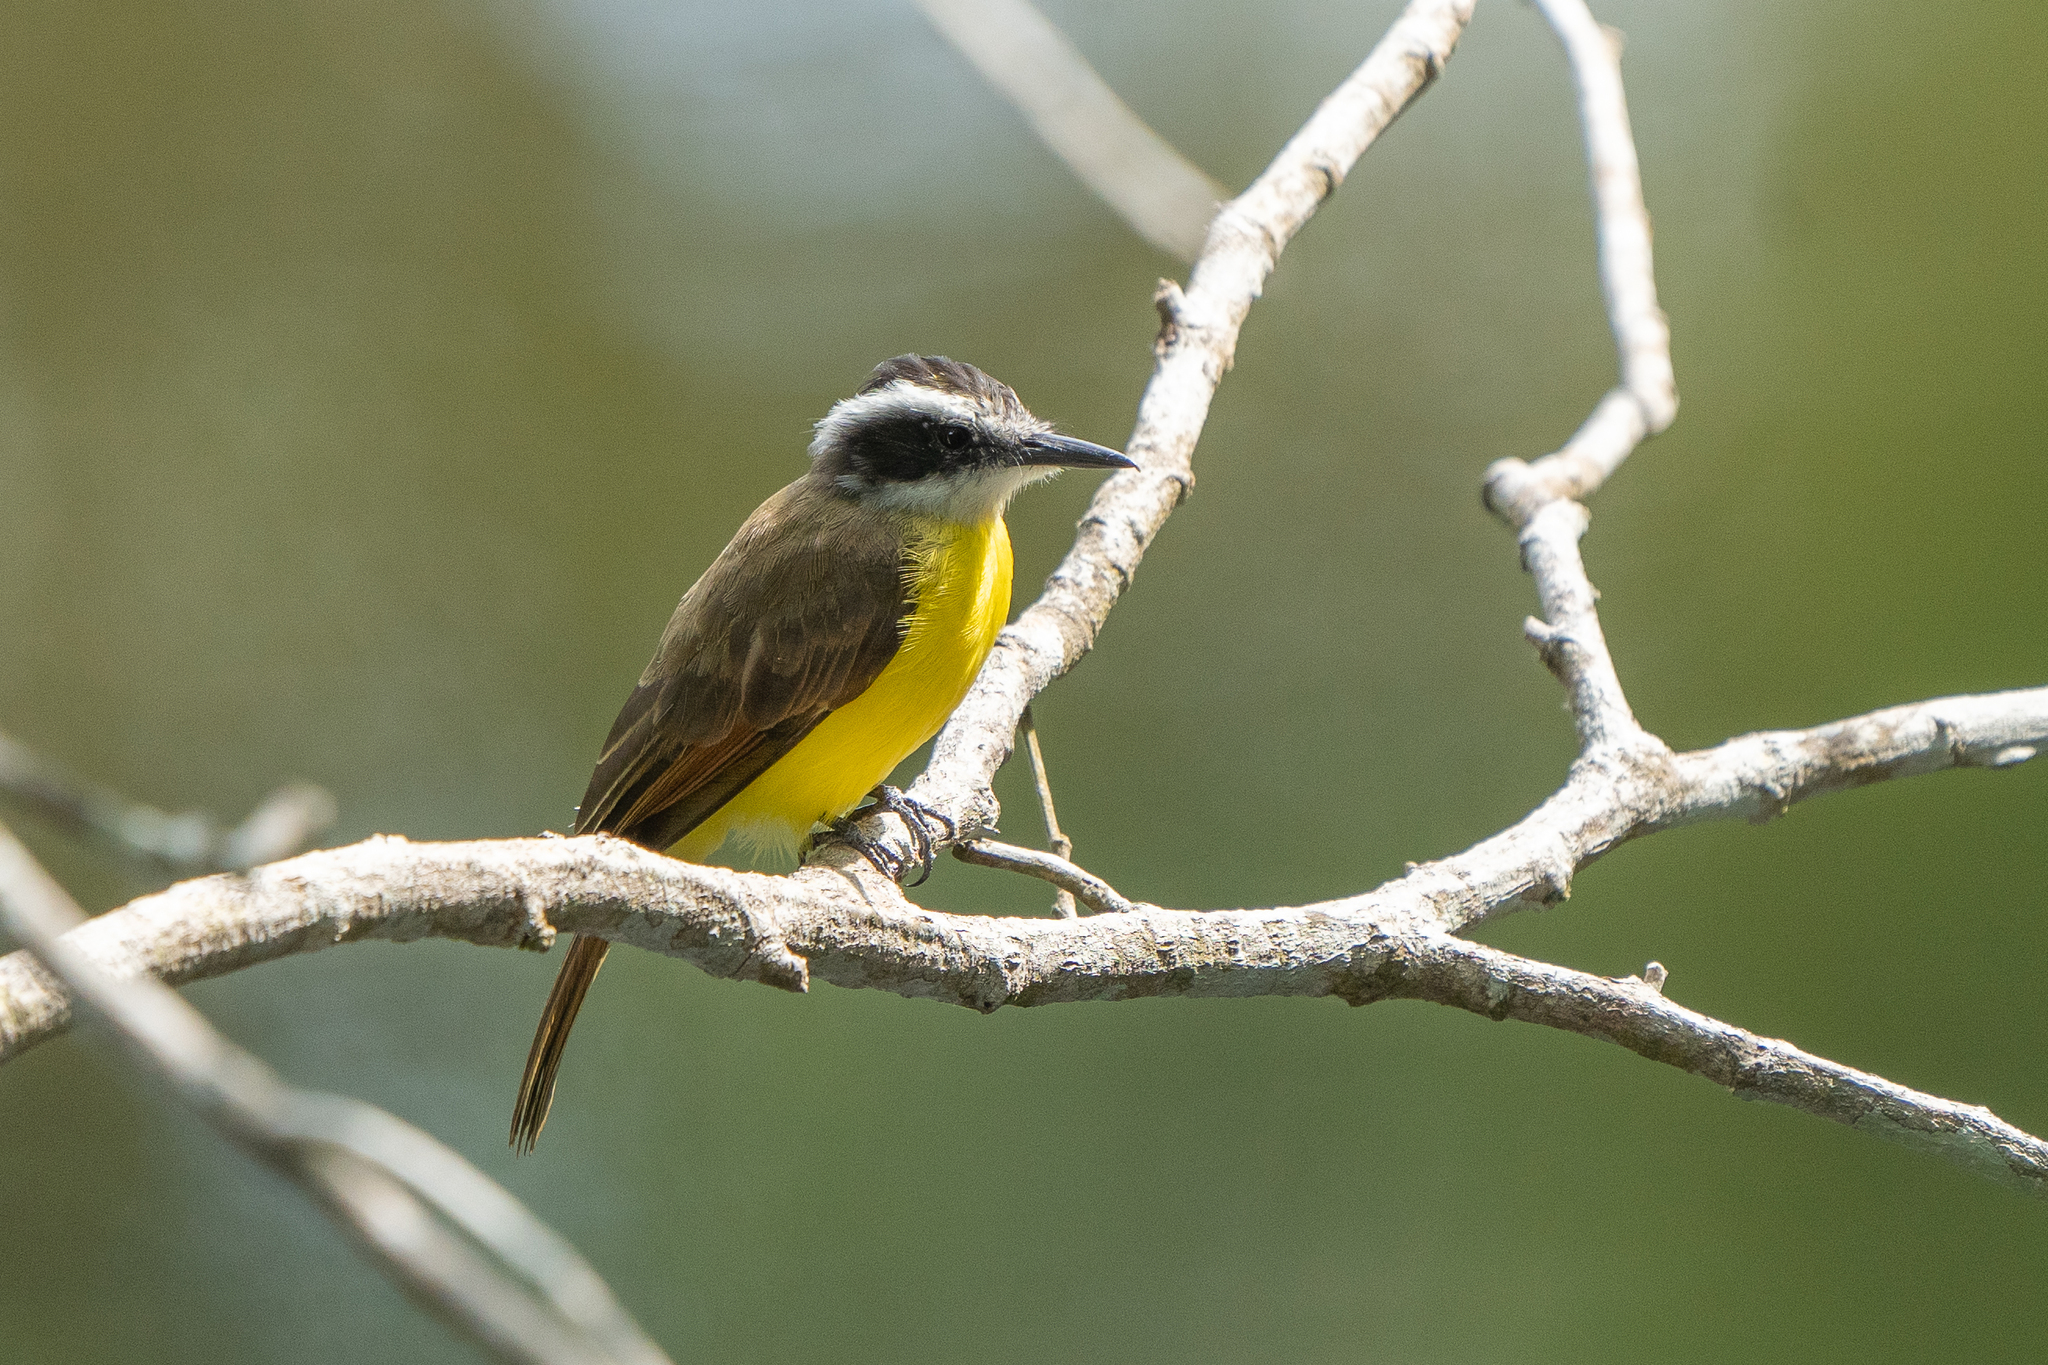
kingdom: Animalia
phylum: Chordata
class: Aves
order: Passeriformes
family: Tyrannidae
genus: Pitangus
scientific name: Pitangus lictor
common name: Lesser kiskadee
